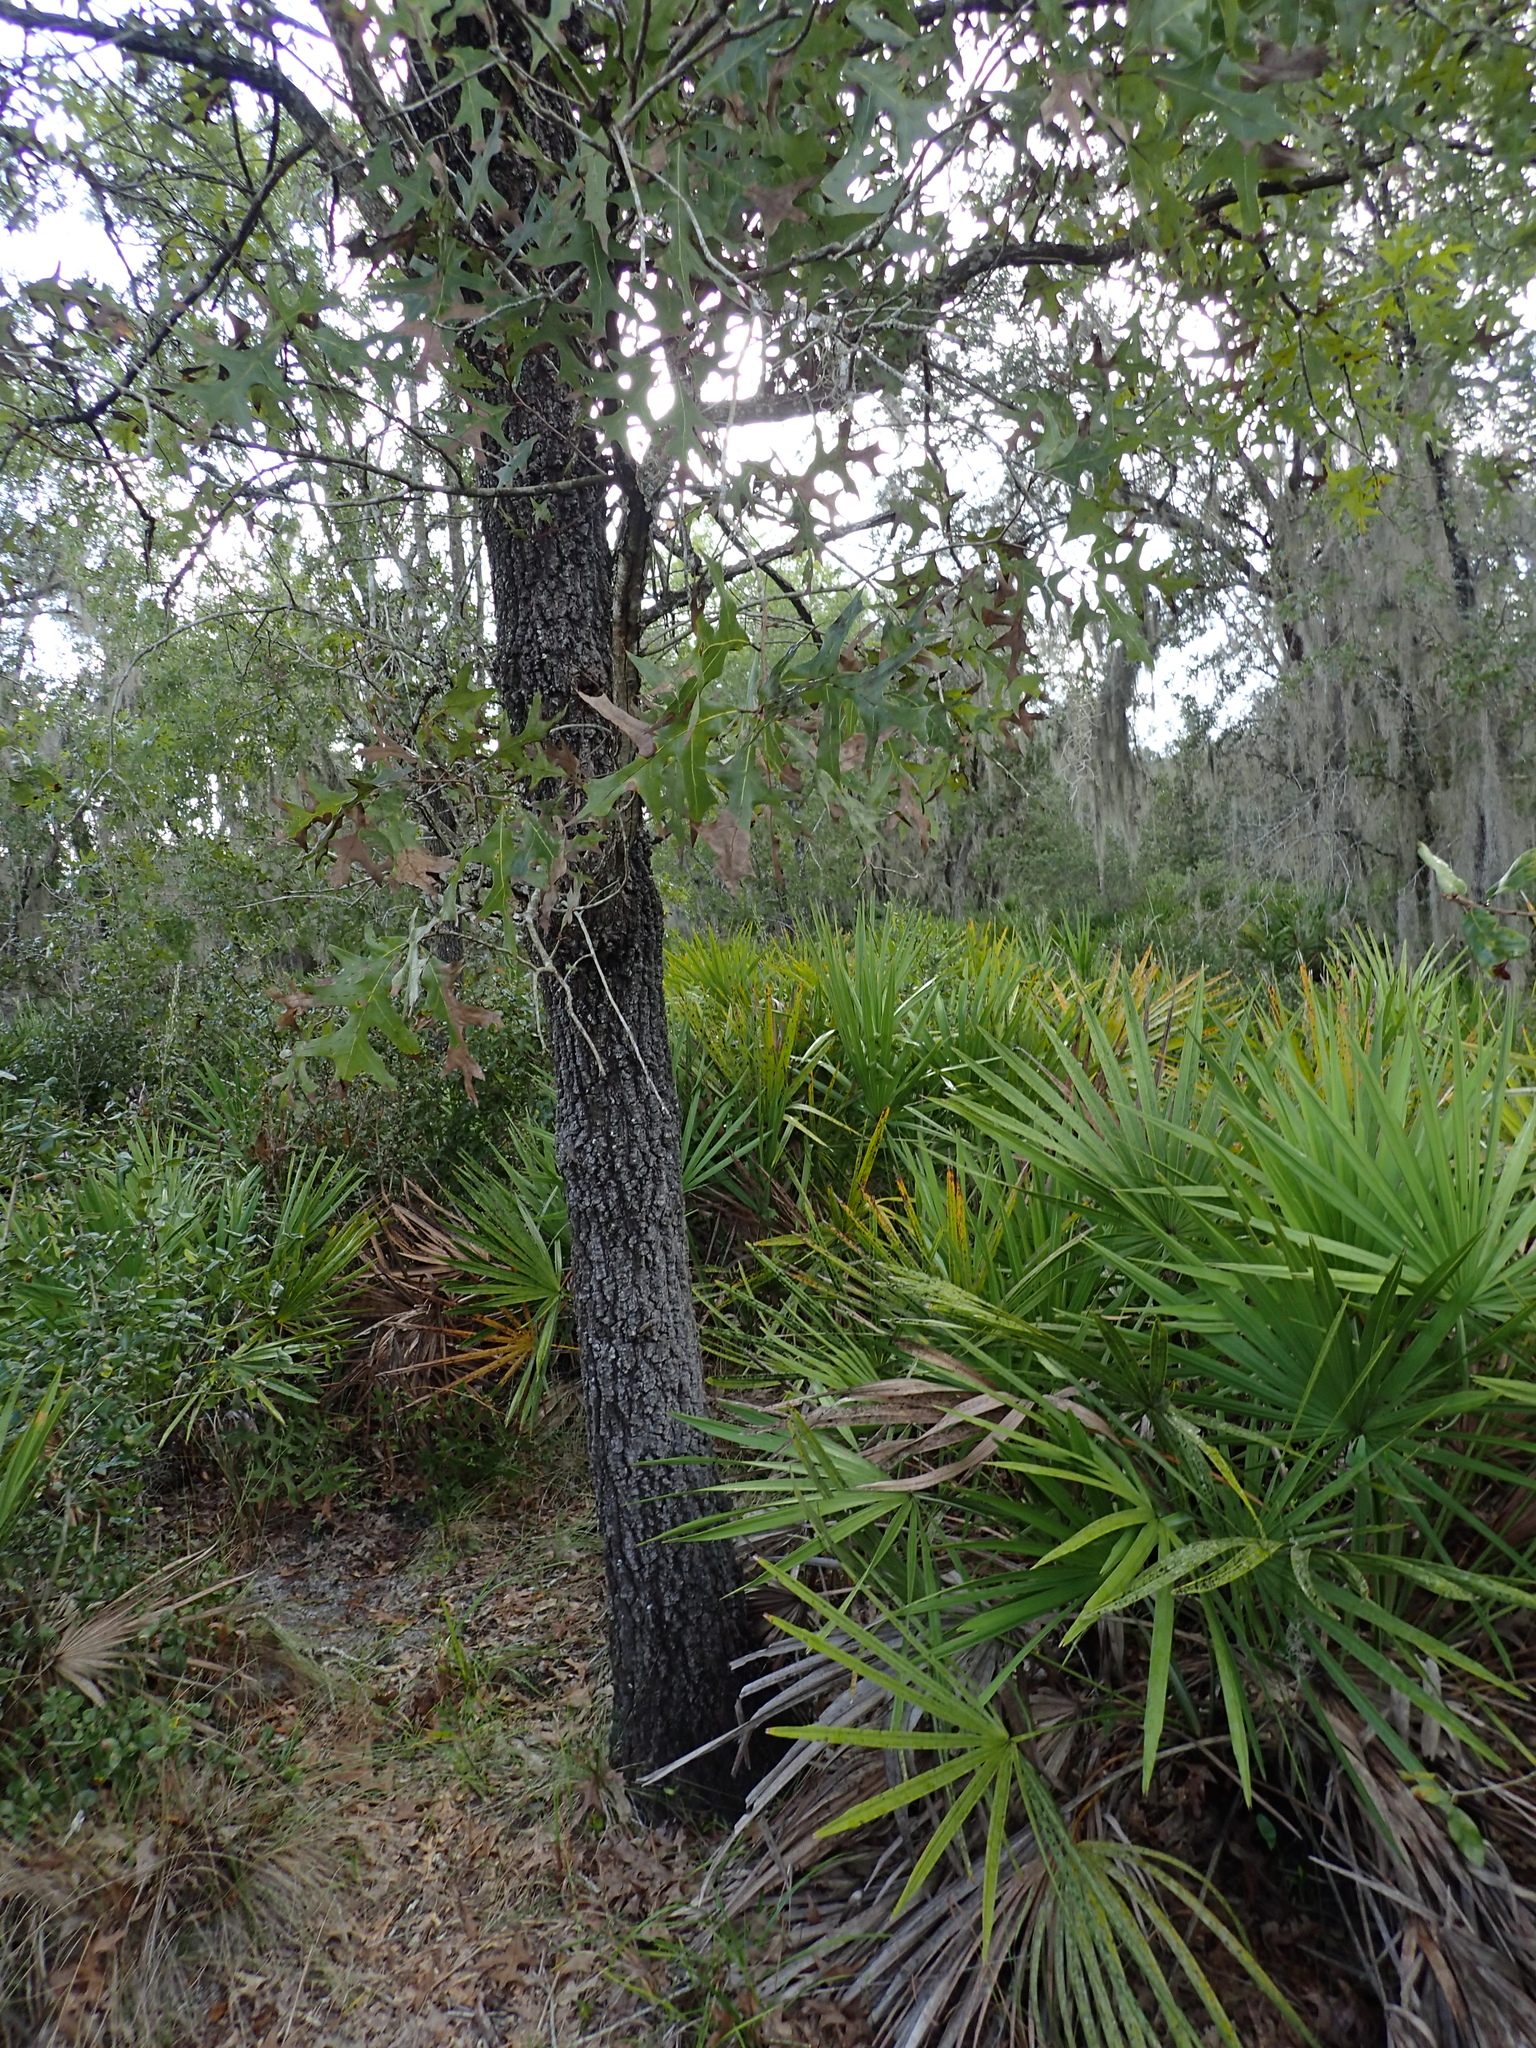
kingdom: Plantae
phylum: Tracheophyta
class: Magnoliopsida
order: Fagales
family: Fagaceae
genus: Quercus
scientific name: Quercus laevis
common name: Turkey oak
